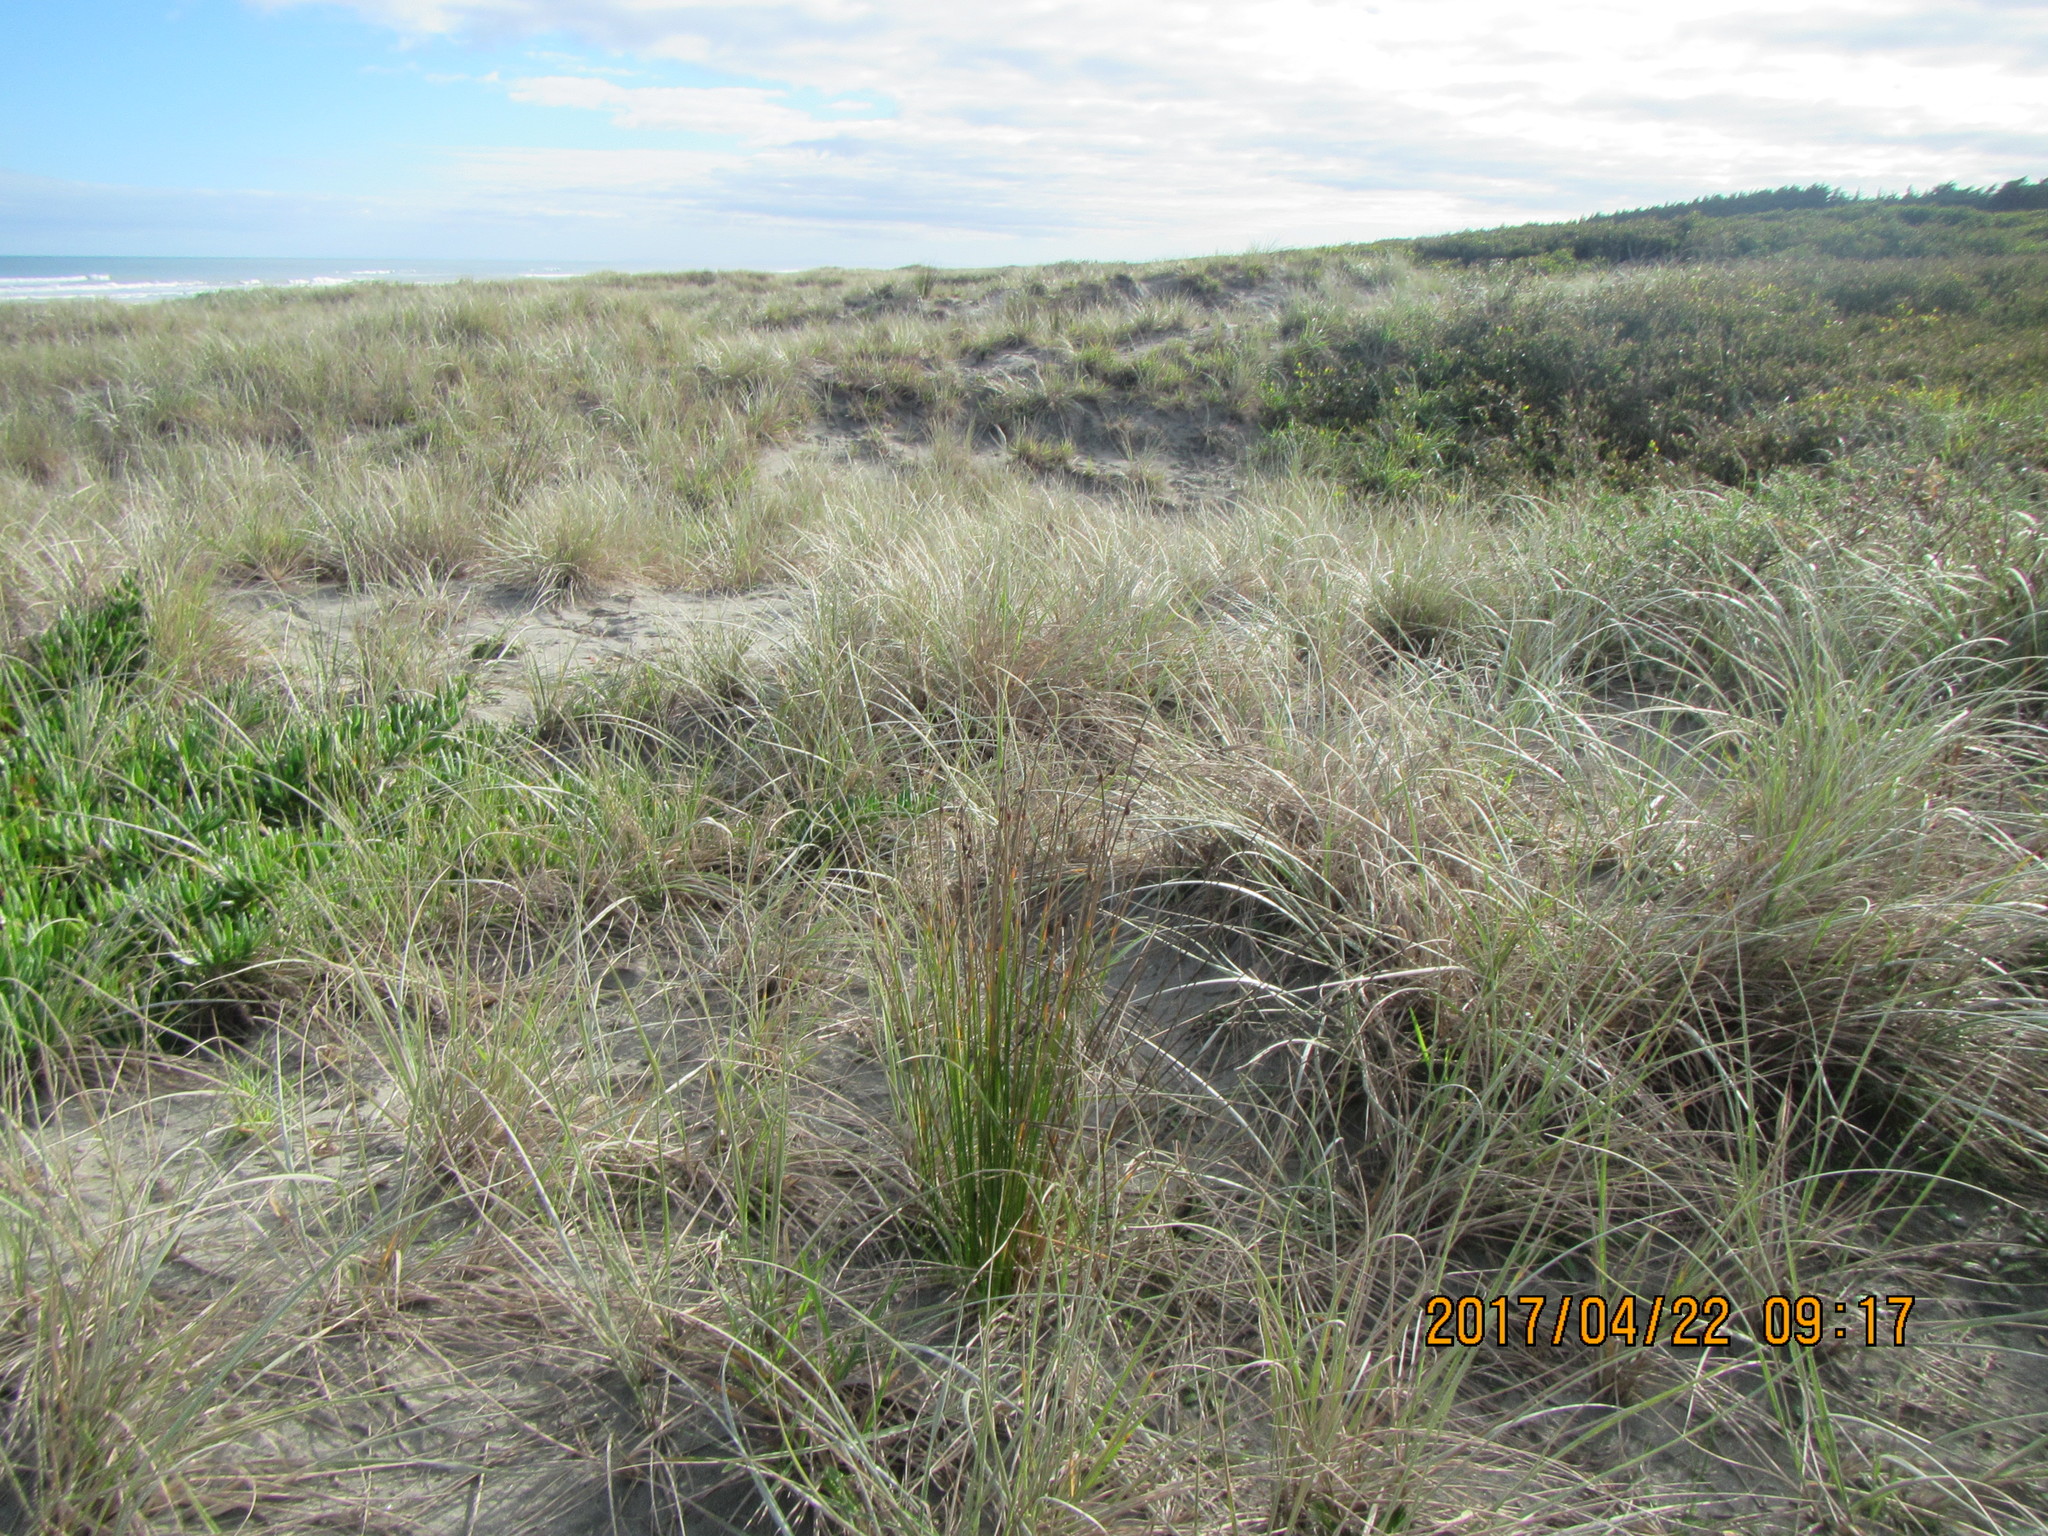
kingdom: Plantae
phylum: Tracheophyta
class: Liliopsida
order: Poales
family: Cyperaceae
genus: Ficinia
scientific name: Ficinia nodosa
